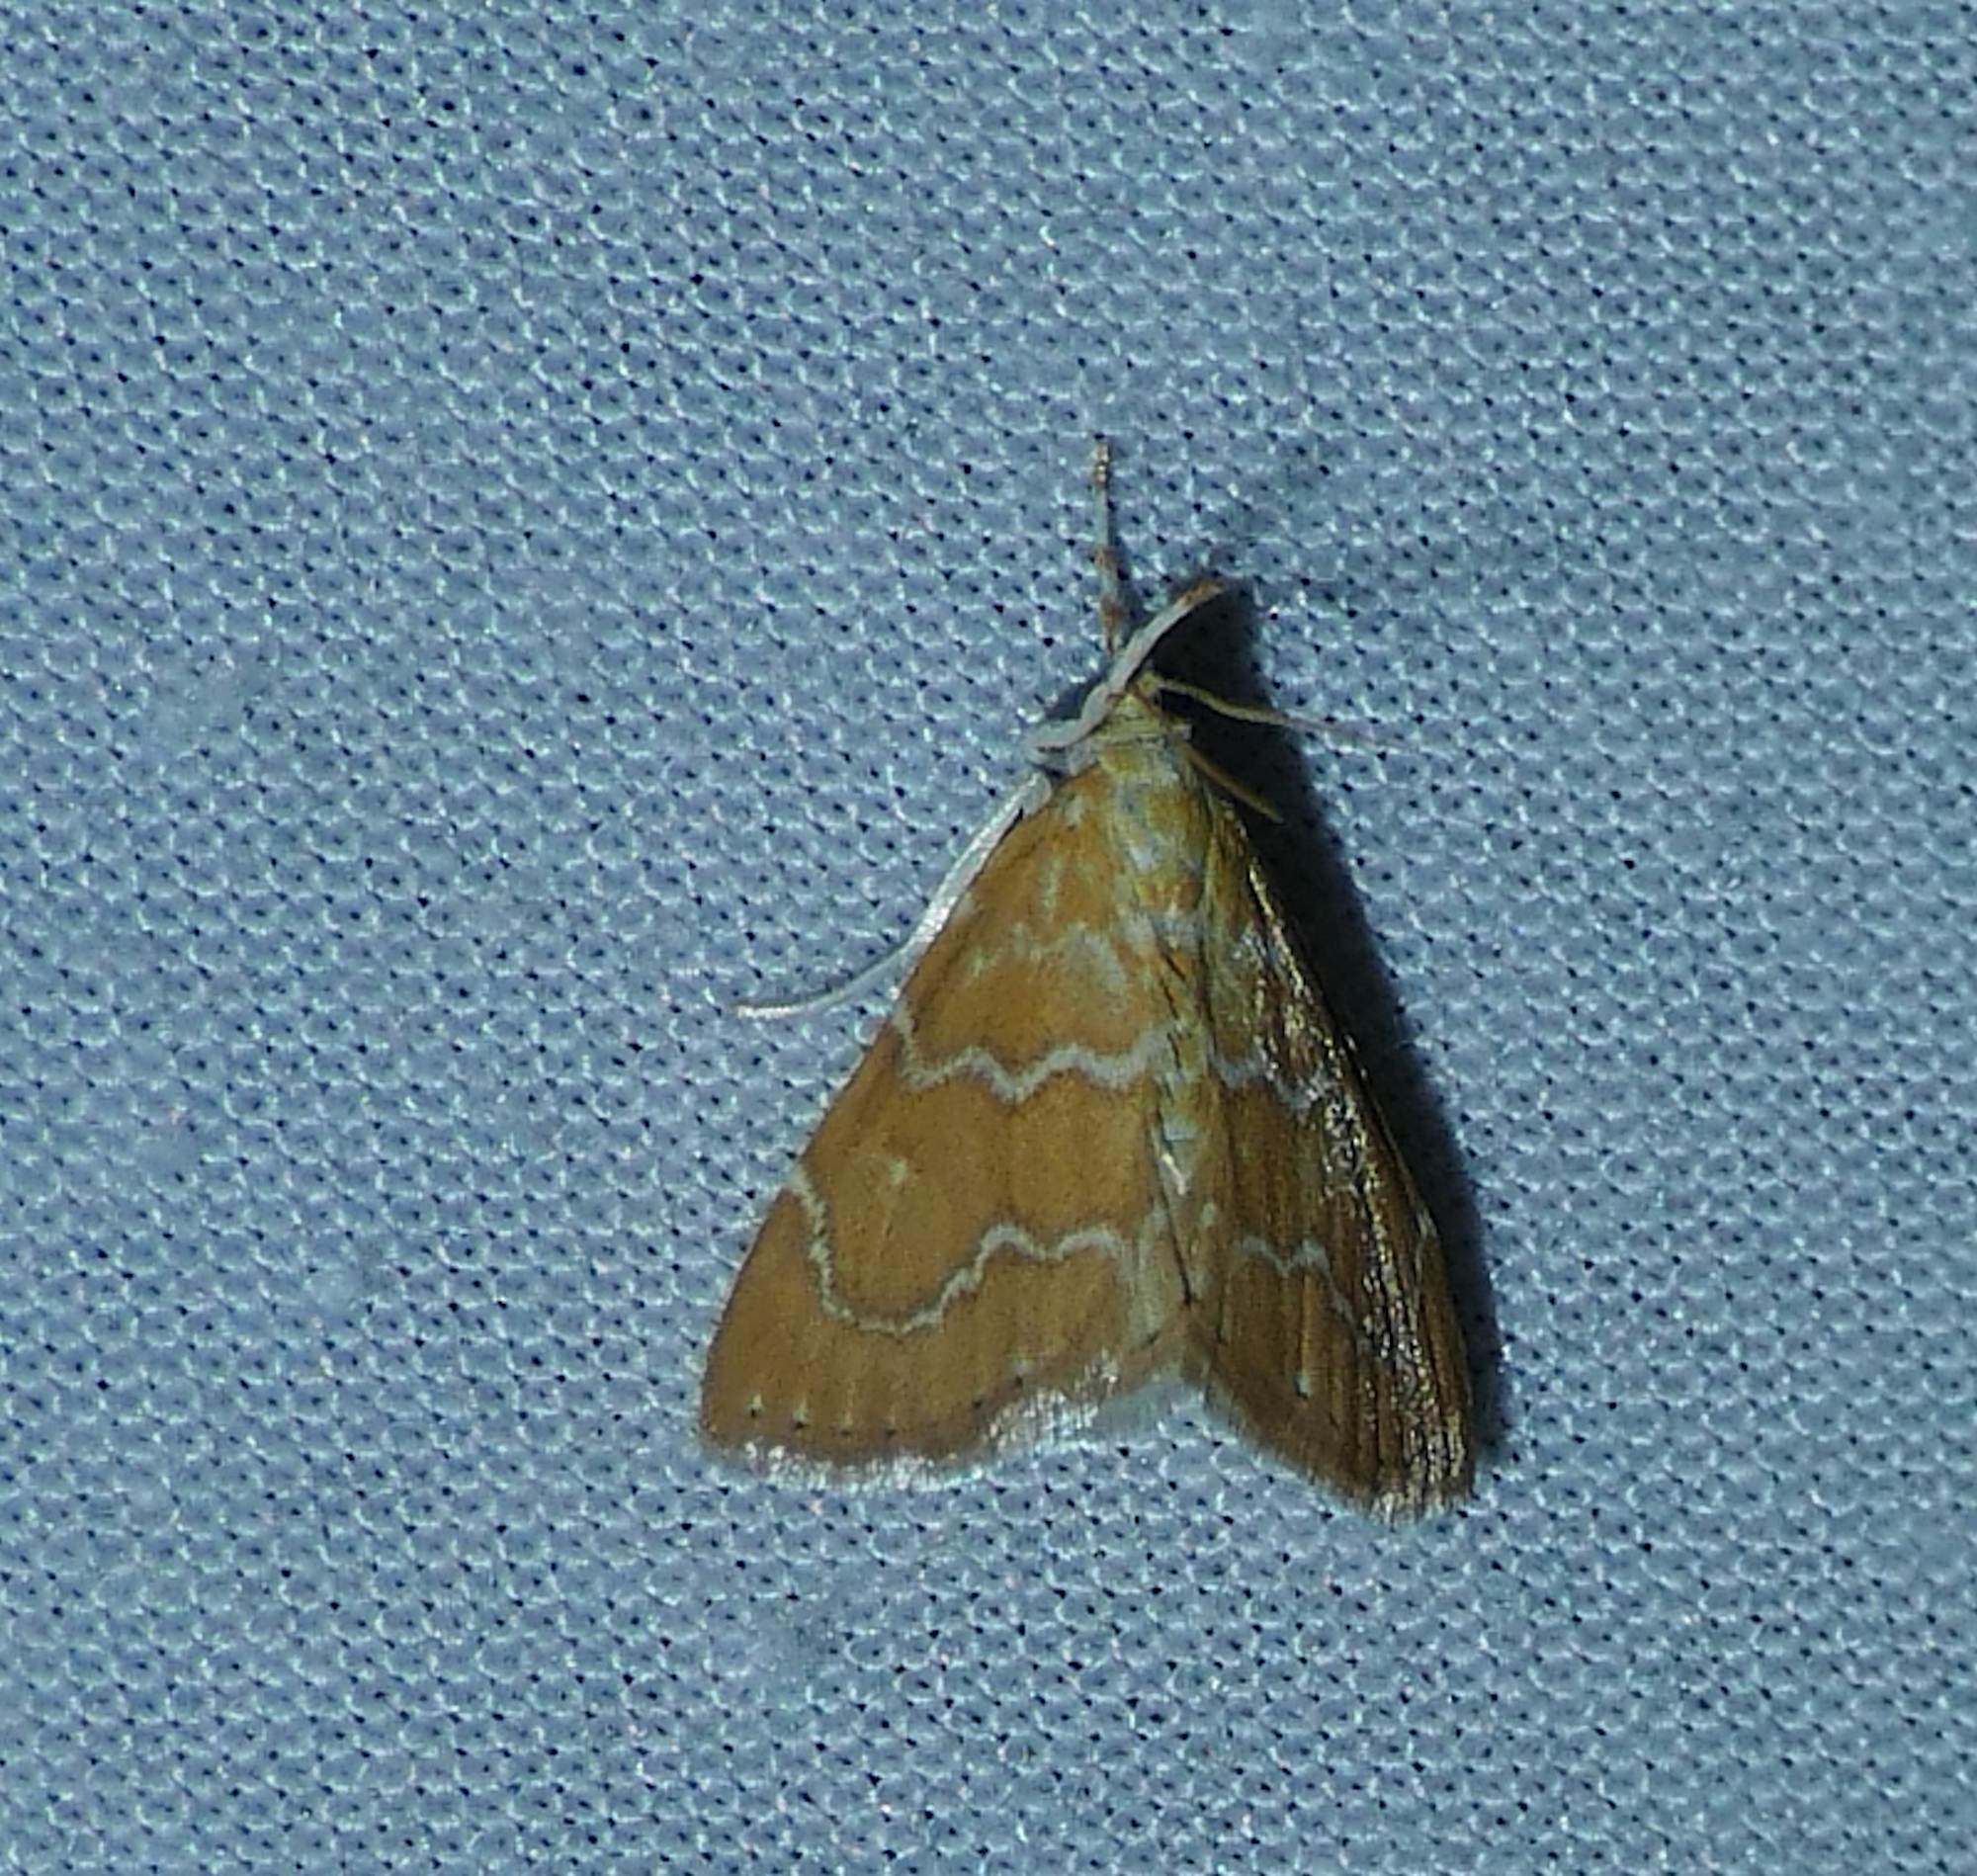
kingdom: Animalia
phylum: Arthropoda
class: Insecta
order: Lepidoptera
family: Crambidae
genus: Glaphyria
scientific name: Glaphyria sesquistrialis
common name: White-roped glaphyria
